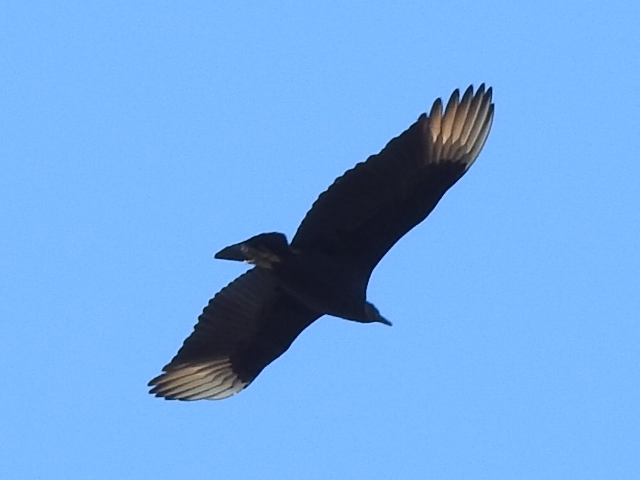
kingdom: Animalia
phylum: Chordata
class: Aves
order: Accipitriformes
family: Cathartidae
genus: Coragyps
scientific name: Coragyps atratus
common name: Black vulture
